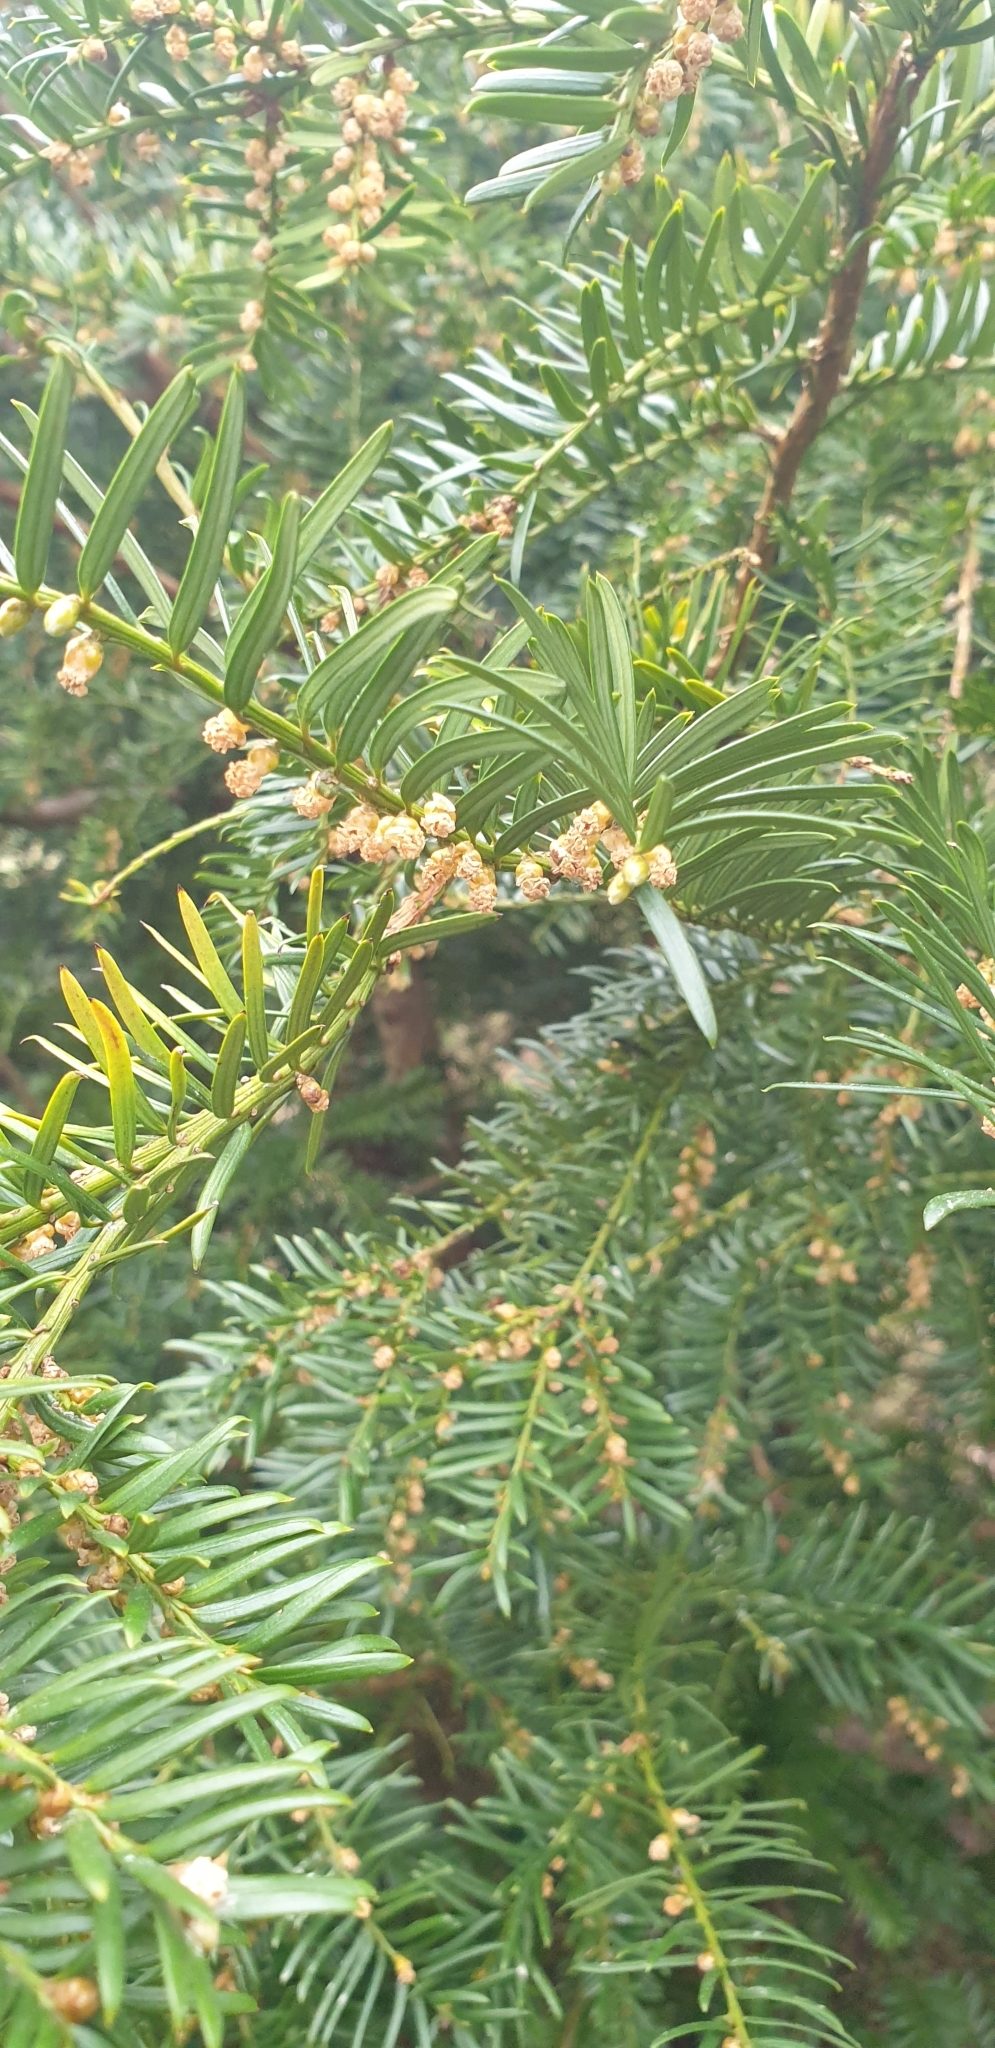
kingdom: Plantae
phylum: Tracheophyta
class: Pinopsida
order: Pinales
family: Taxaceae
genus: Taxus
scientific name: Taxus baccata
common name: Yew
